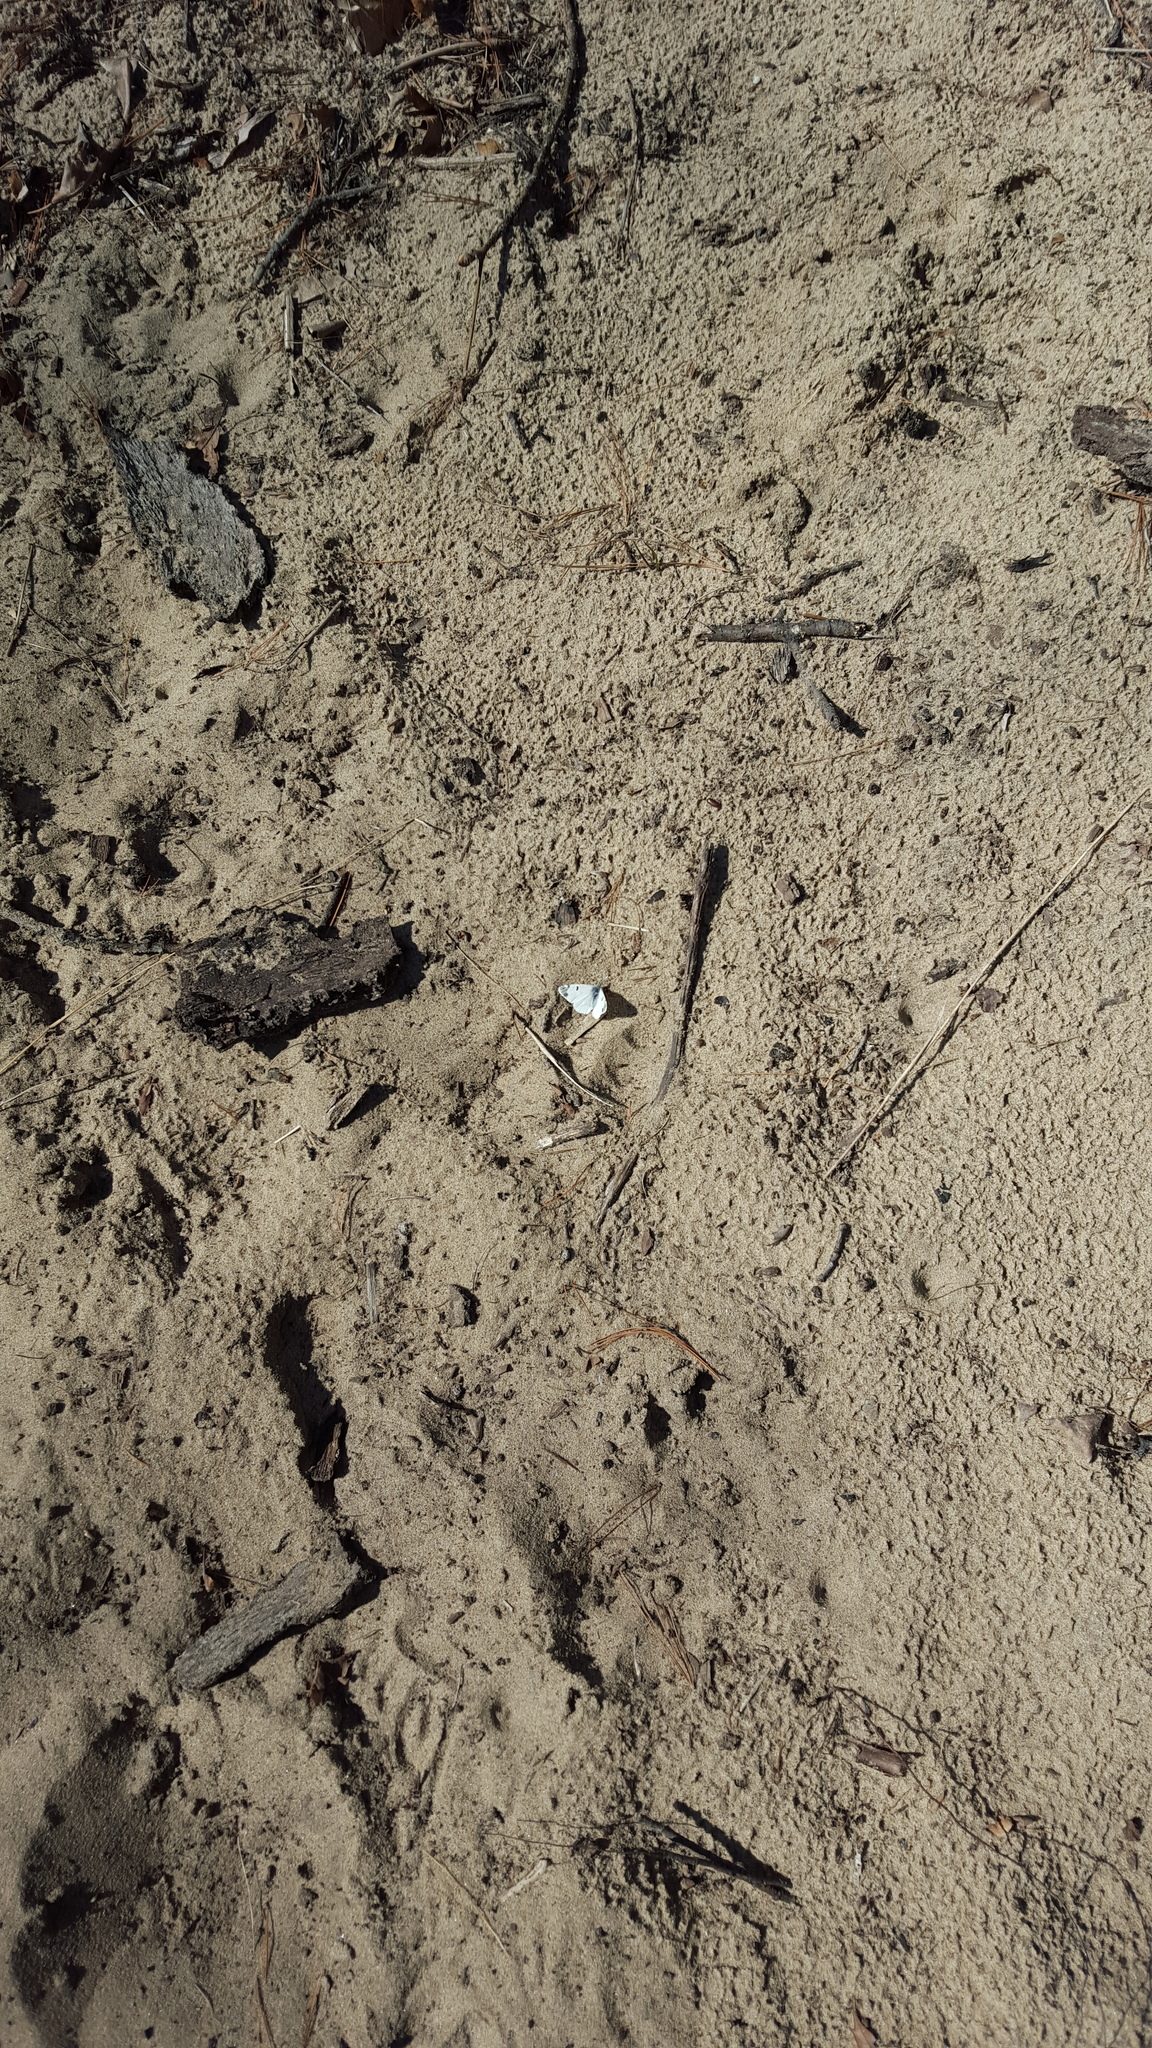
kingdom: Animalia
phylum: Arthropoda
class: Insecta
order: Lepidoptera
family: Pieridae
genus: Pieris
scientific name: Pieris rapae
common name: Small white
